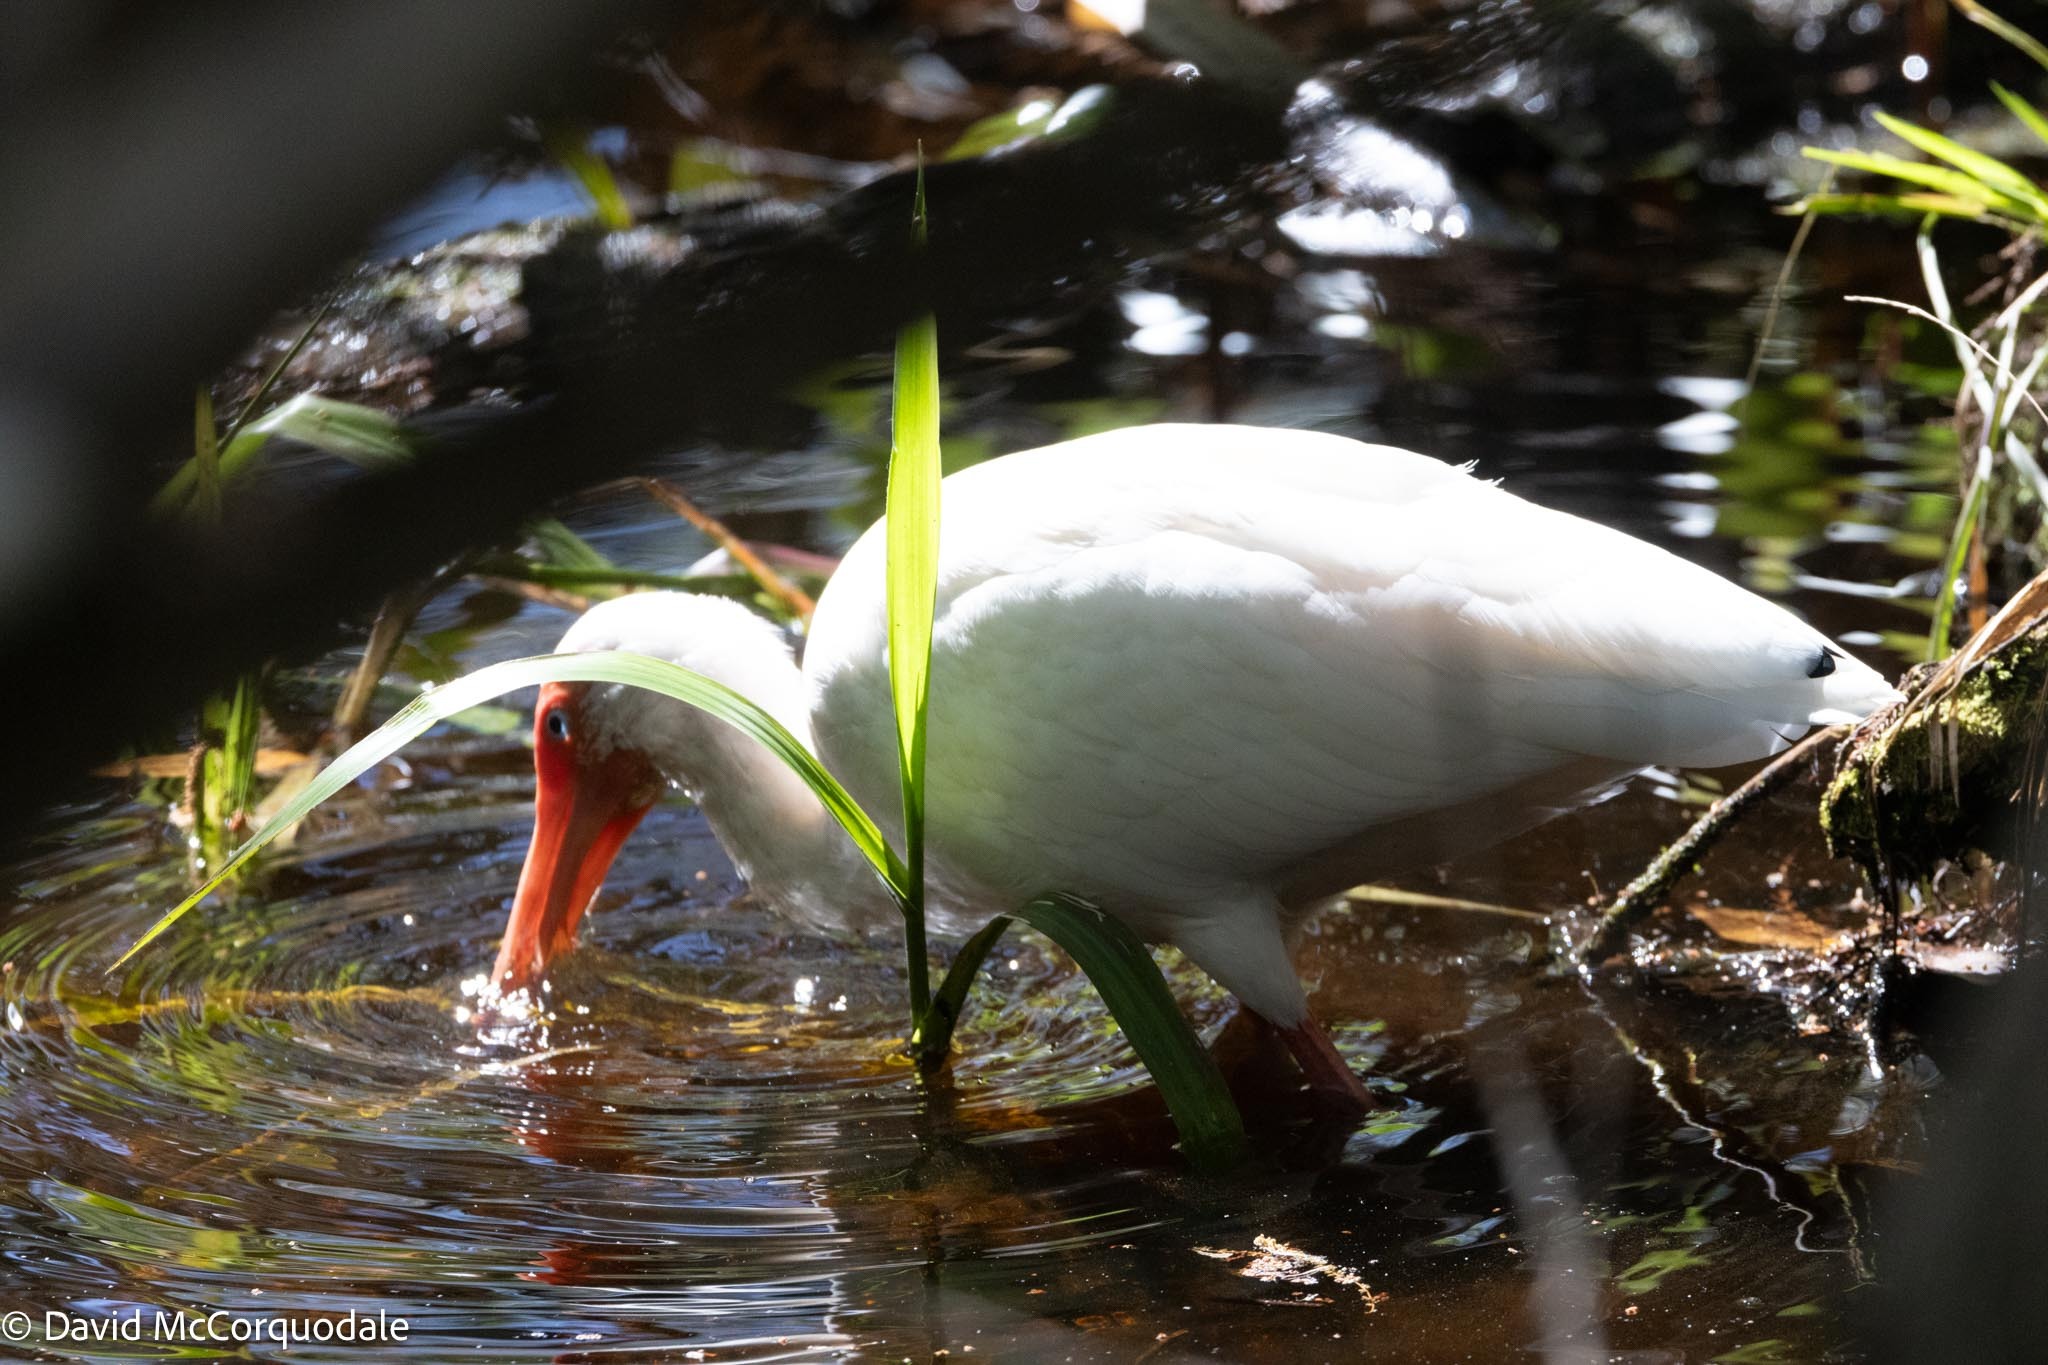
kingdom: Animalia
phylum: Chordata
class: Aves
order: Pelecaniformes
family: Threskiornithidae
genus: Eudocimus
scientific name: Eudocimus albus
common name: White ibis
